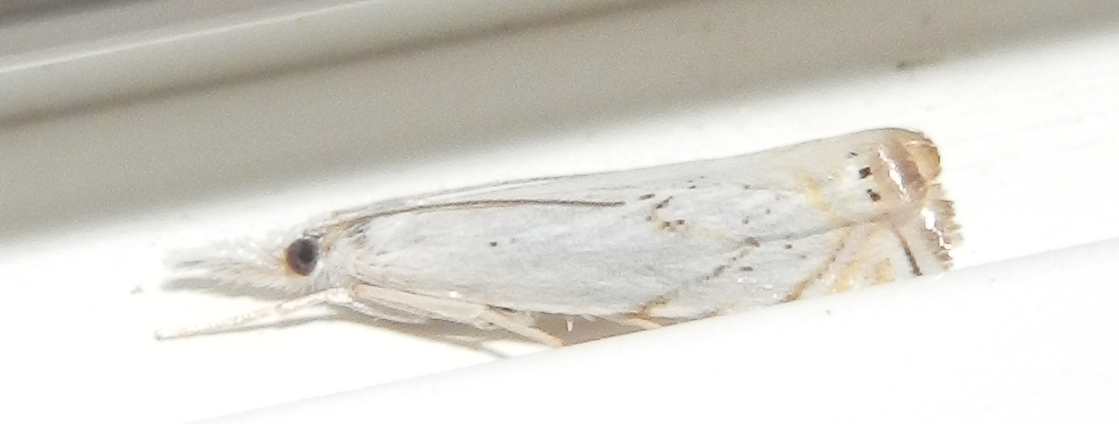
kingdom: Animalia
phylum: Arthropoda
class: Insecta
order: Lepidoptera
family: Crambidae
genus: Crambus
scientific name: Crambus albellus
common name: Small white grass-veneer
